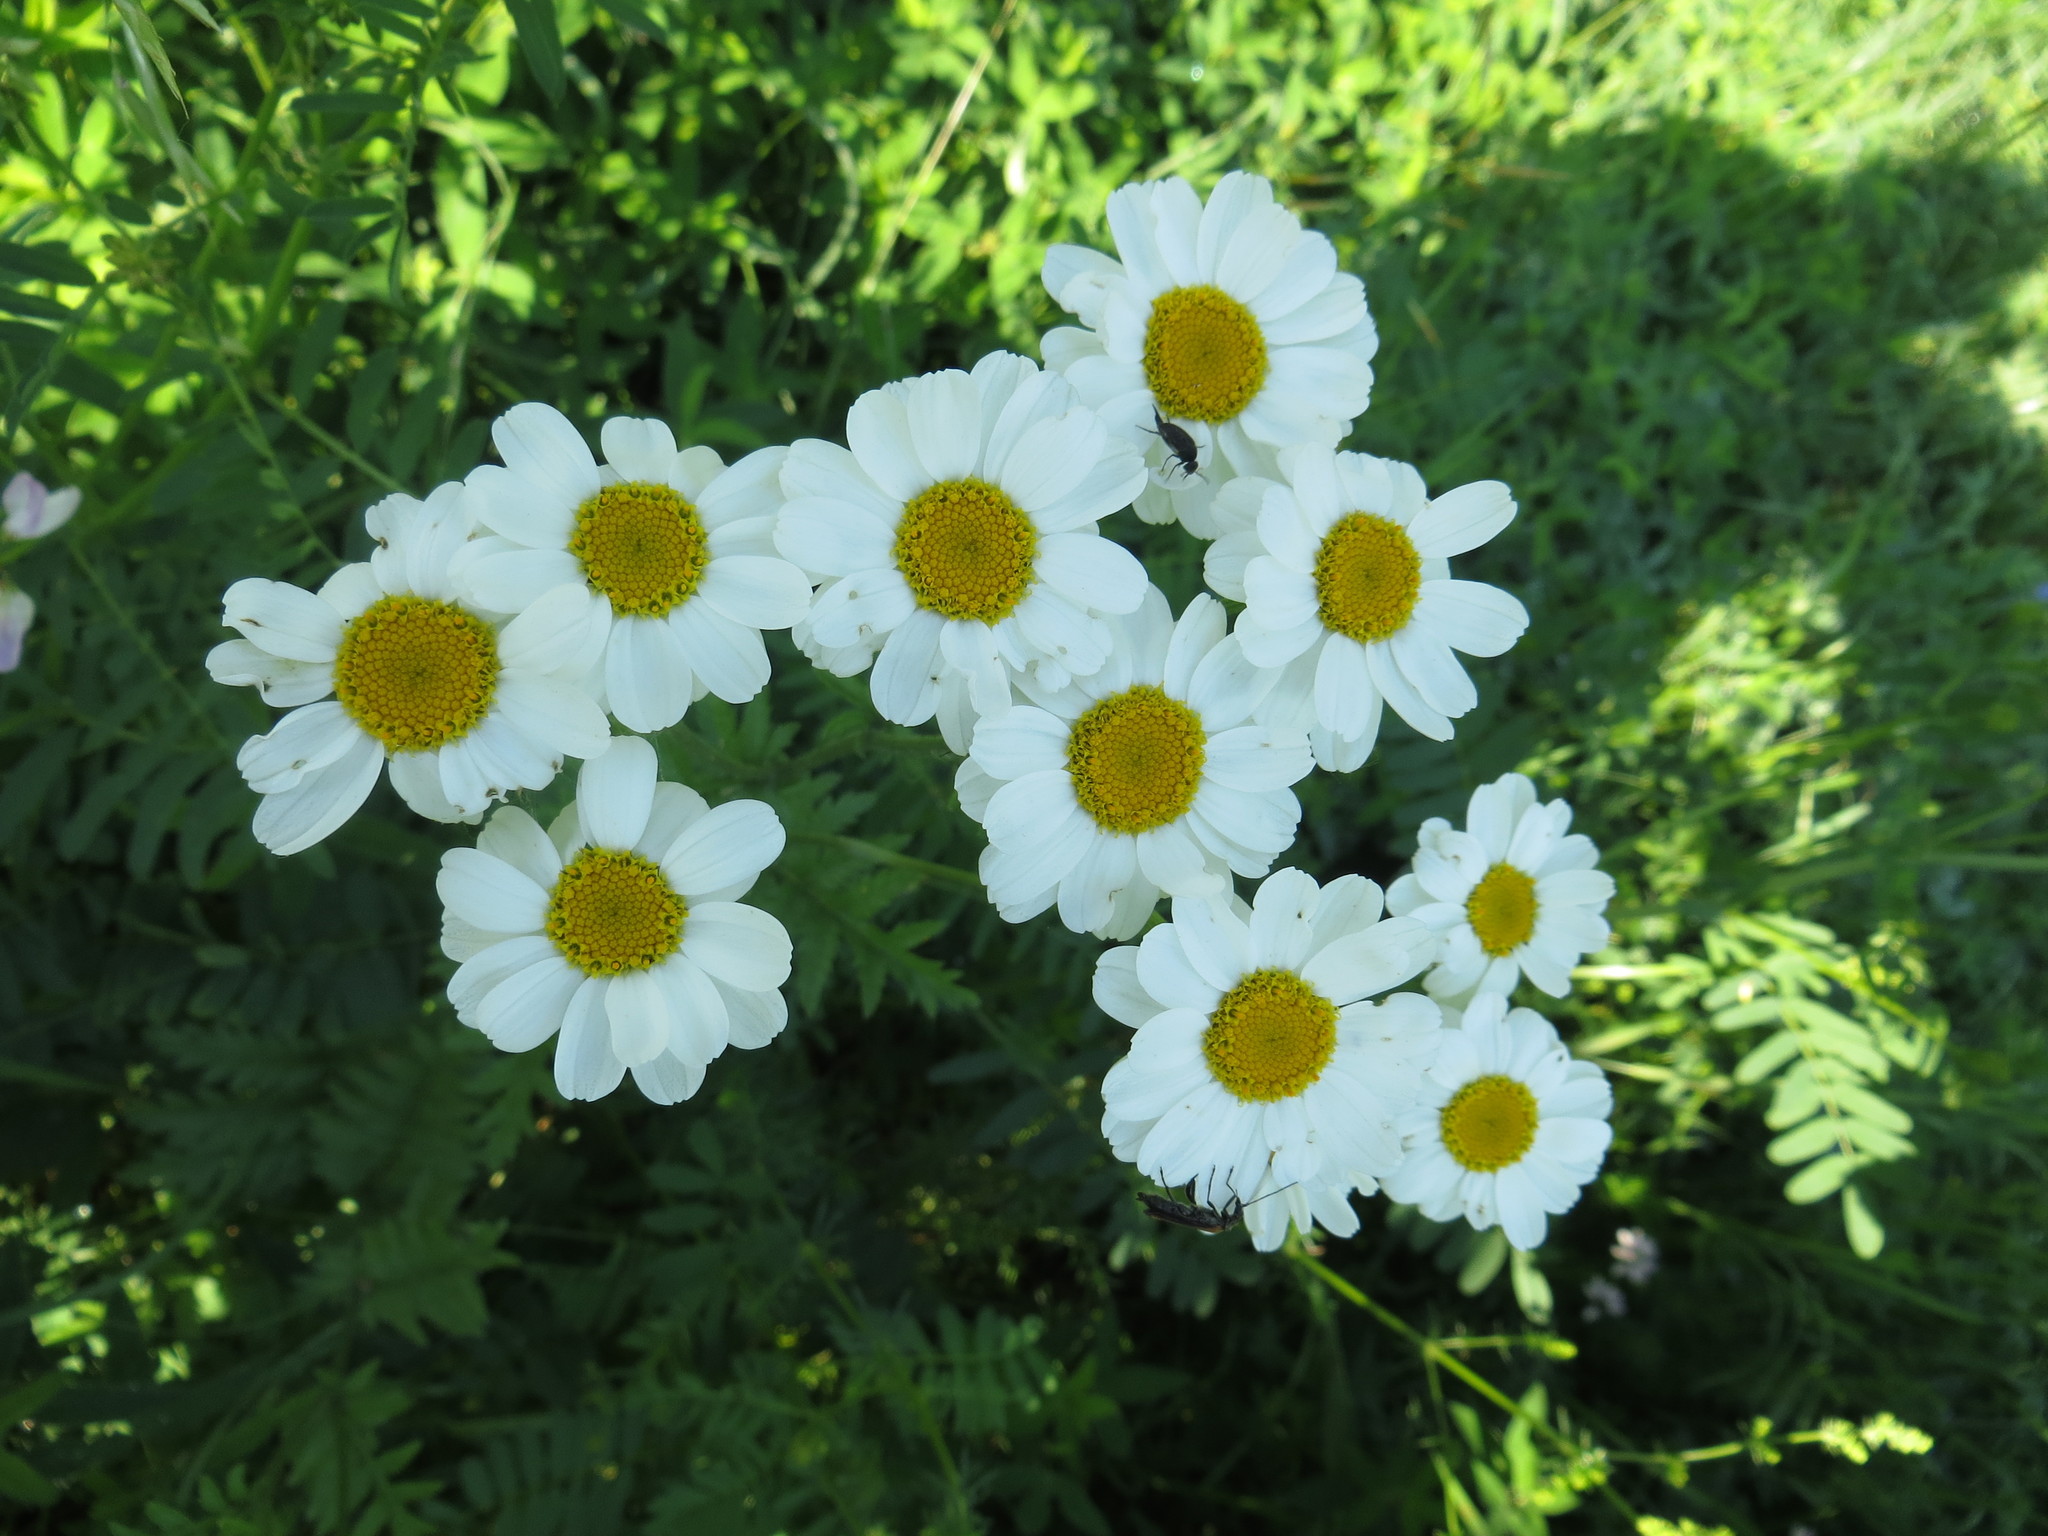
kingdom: Plantae
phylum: Tracheophyta
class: Magnoliopsida
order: Asterales
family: Asteraceae
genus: Tanacetum
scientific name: Tanacetum corymbosum
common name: Scentless feverfew
